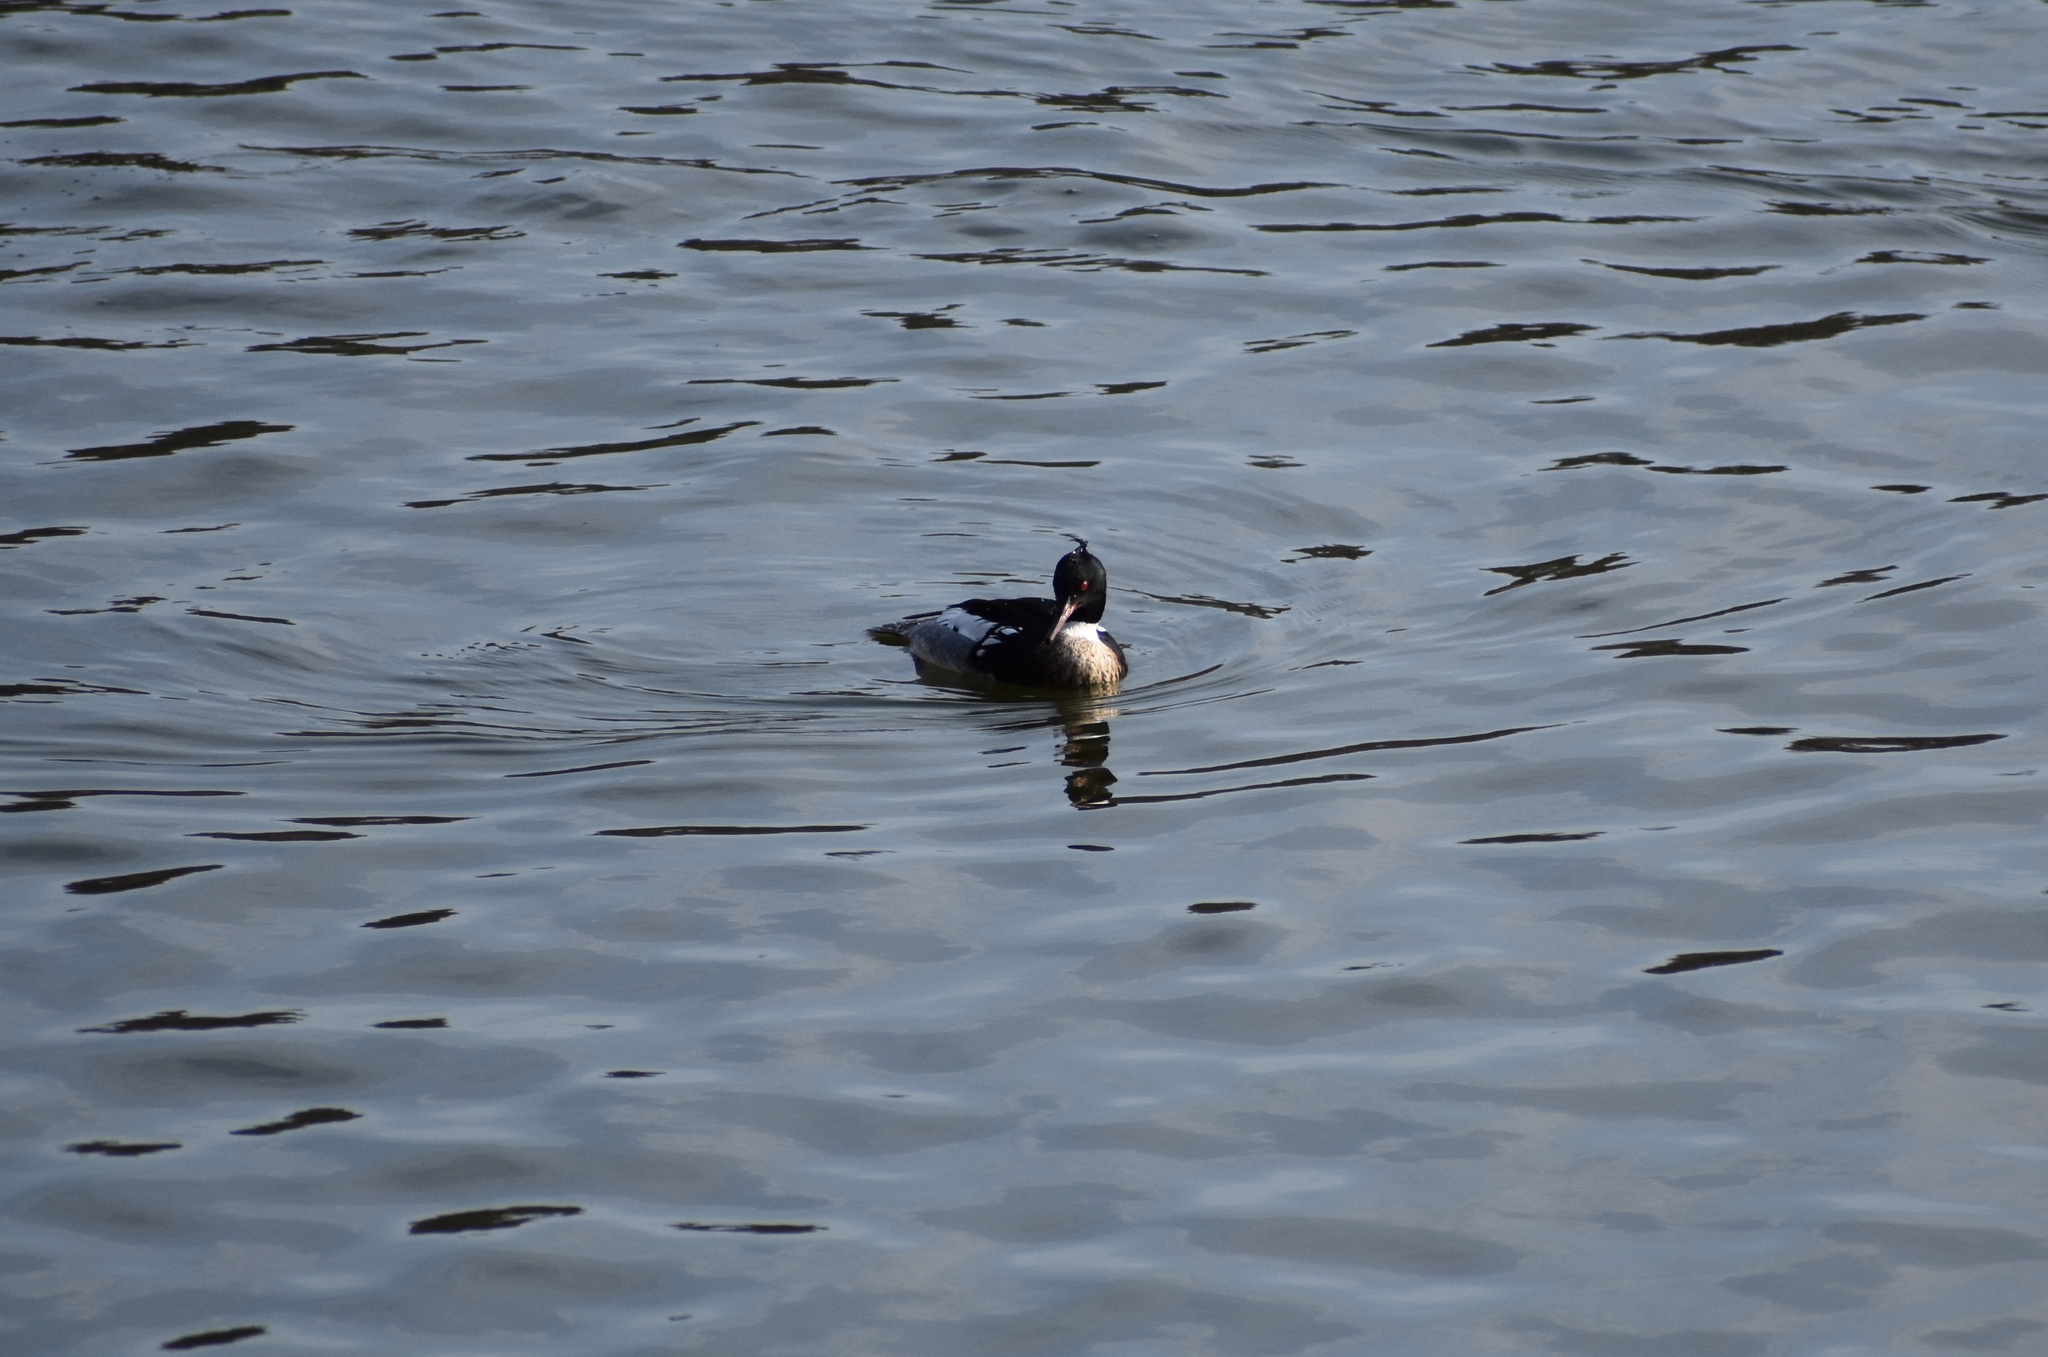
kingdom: Animalia
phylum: Chordata
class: Aves
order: Anseriformes
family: Anatidae
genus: Mergus
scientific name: Mergus serrator
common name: Red-breasted merganser
